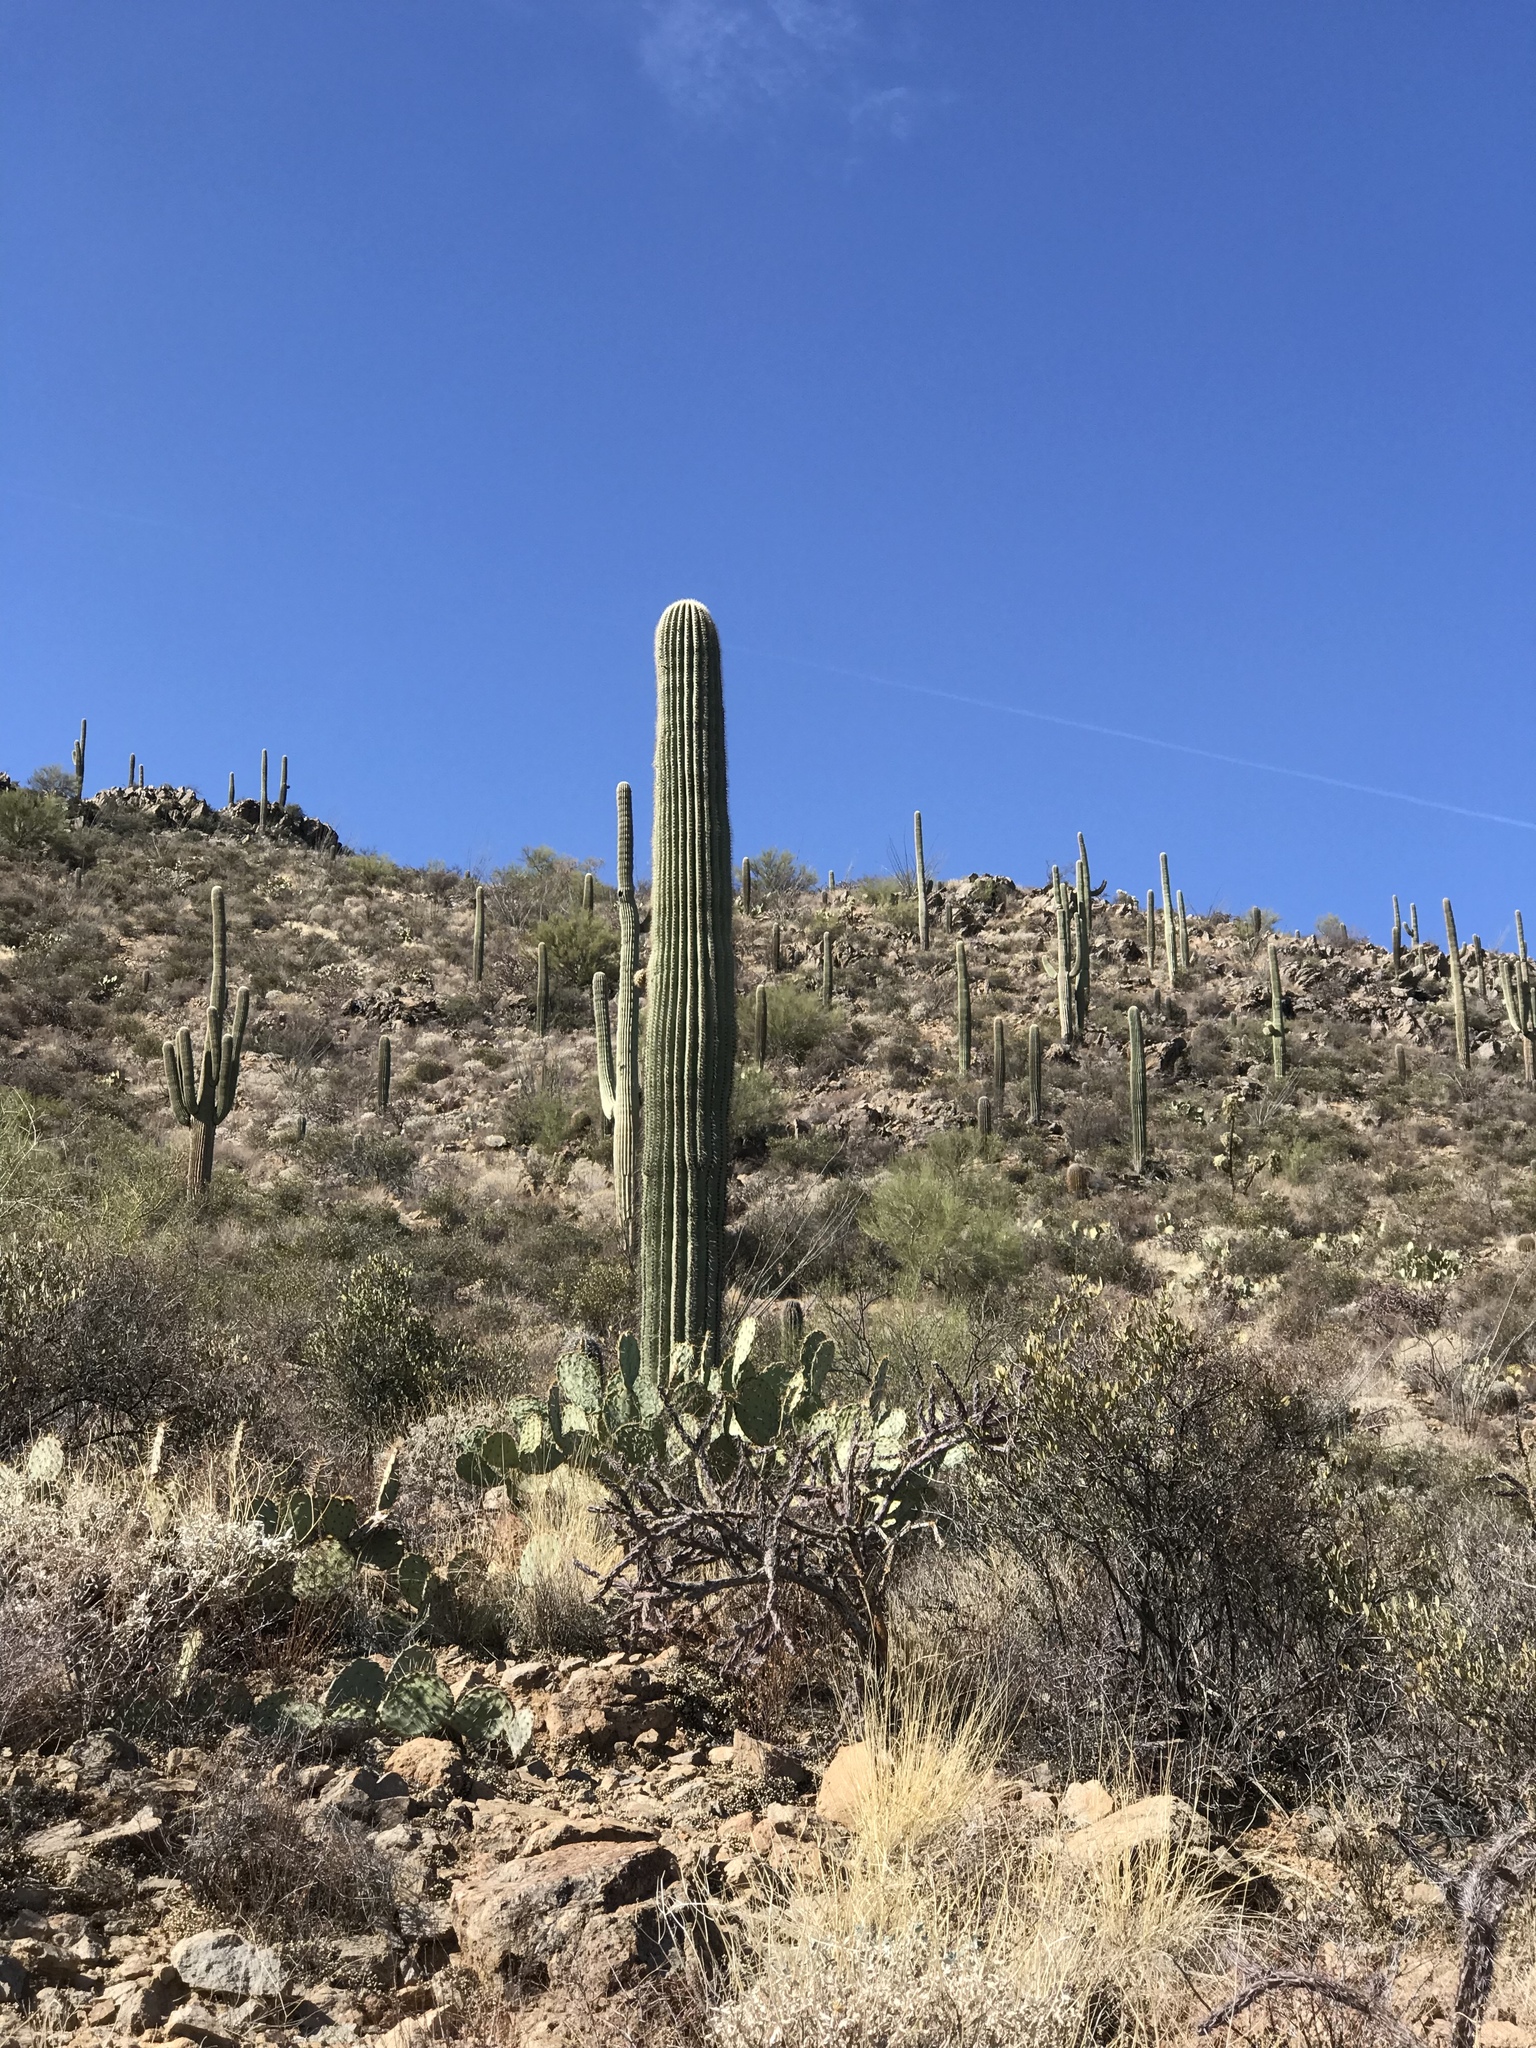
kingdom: Plantae
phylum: Tracheophyta
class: Magnoliopsida
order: Caryophyllales
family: Cactaceae
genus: Carnegiea
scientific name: Carnegiea gigantea
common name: Saguaro
